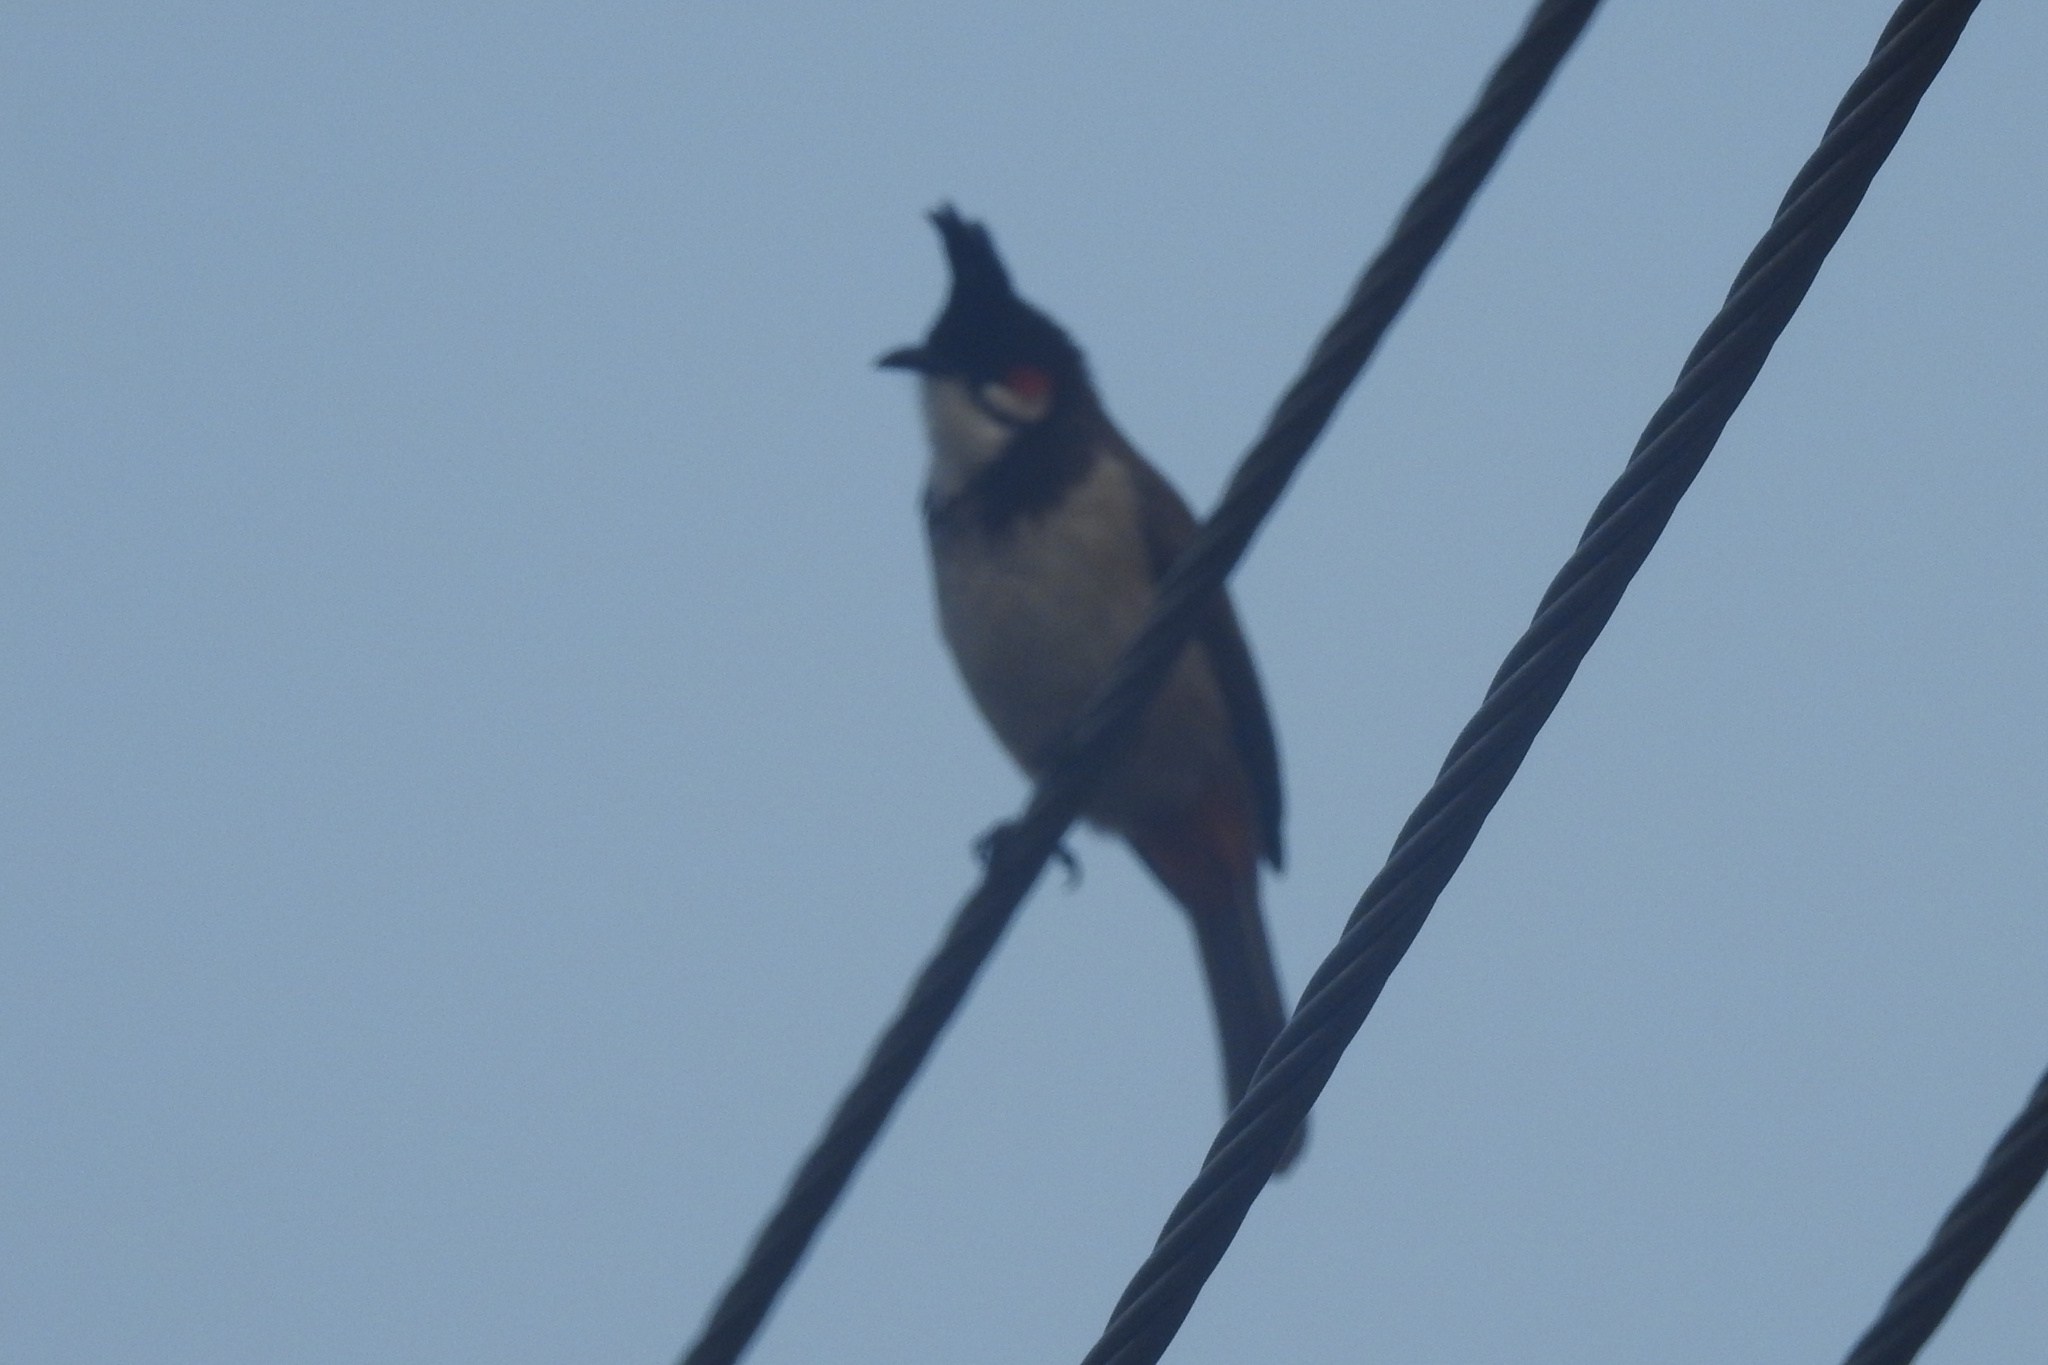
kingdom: Animalia
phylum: Chordata
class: Aves
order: Passeriformes
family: Pycnonotidae
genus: Pycnonotus
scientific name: Pycnonotus jocosus
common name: Red-whiskered bulbul
